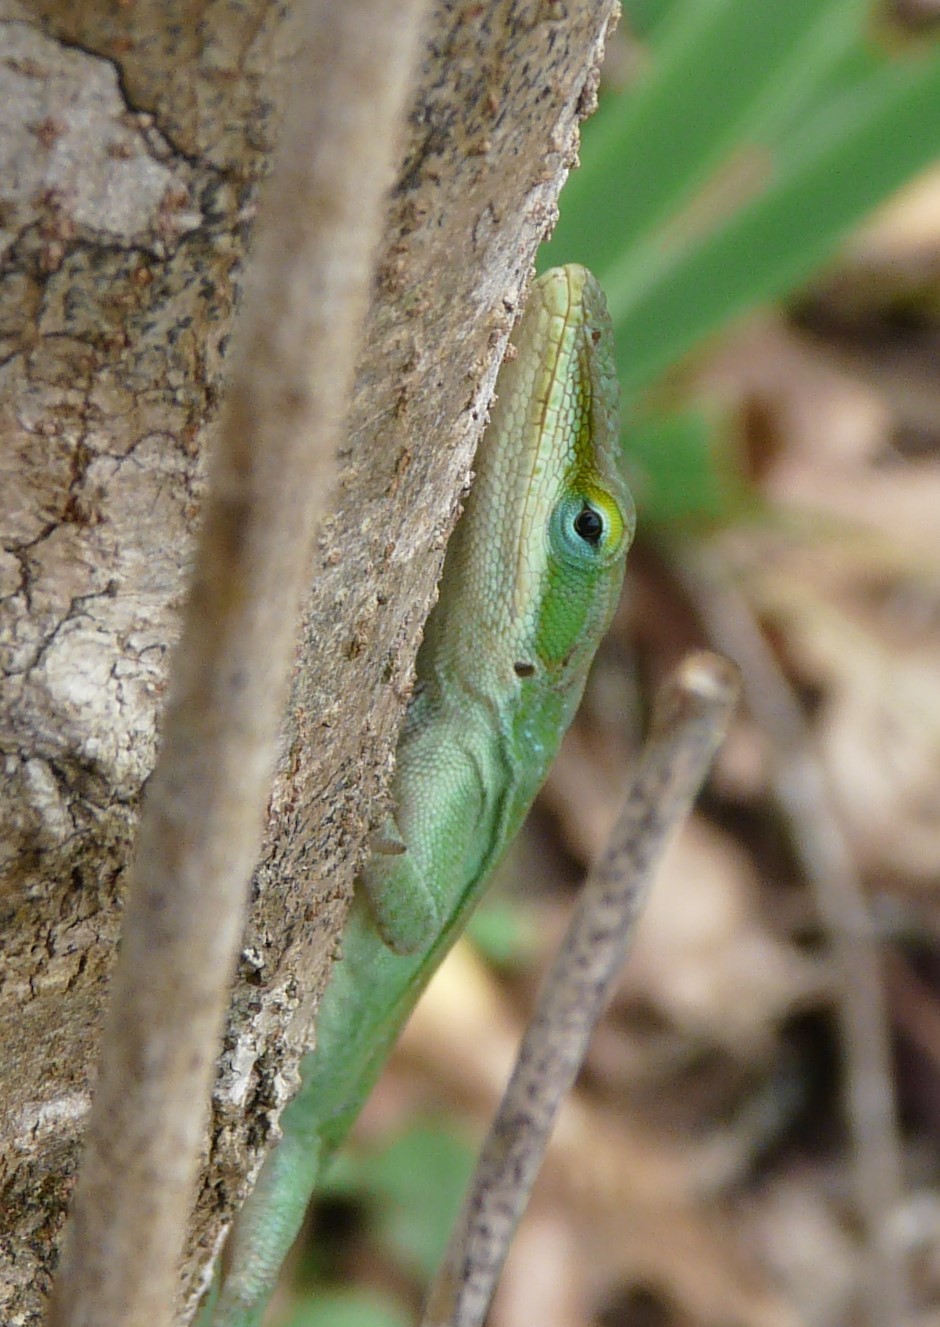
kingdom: Animalia
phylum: Chordata
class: Squamata
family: Dactyloidae
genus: Anolis
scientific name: Anolis carolinensis
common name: Green anole
